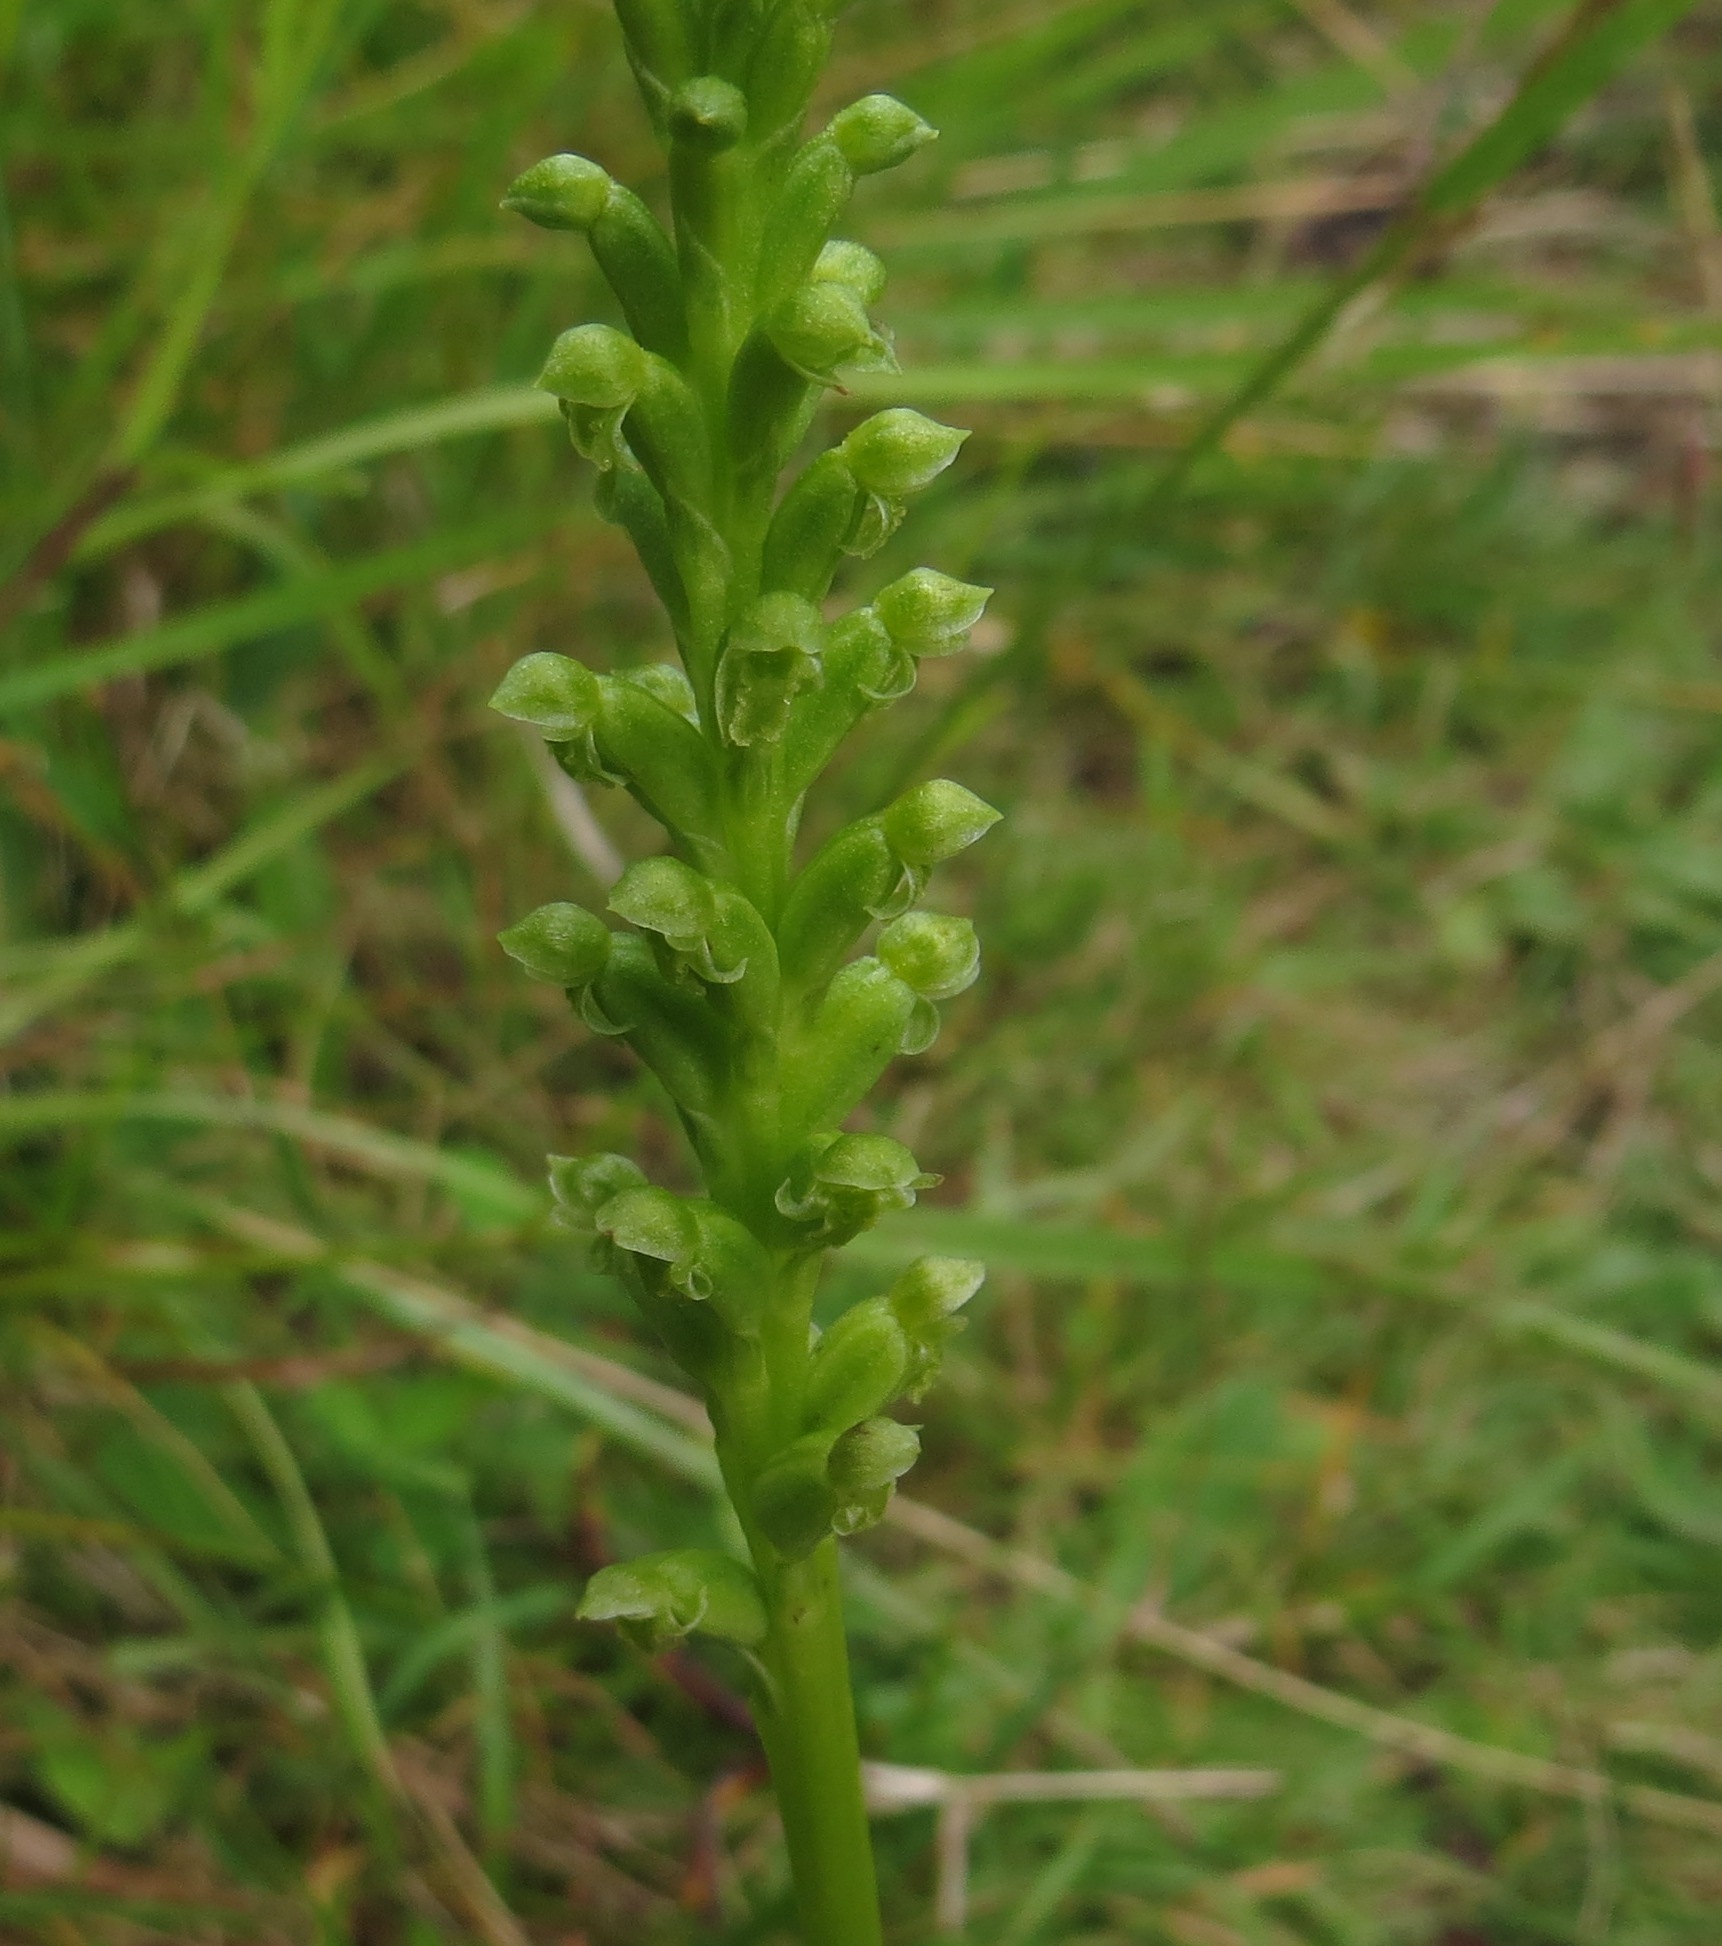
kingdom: Plantae
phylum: Tracheophyta
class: Liliopsida
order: Asparagales
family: Orchidaceae
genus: Microtis
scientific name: Microtis unifolia
